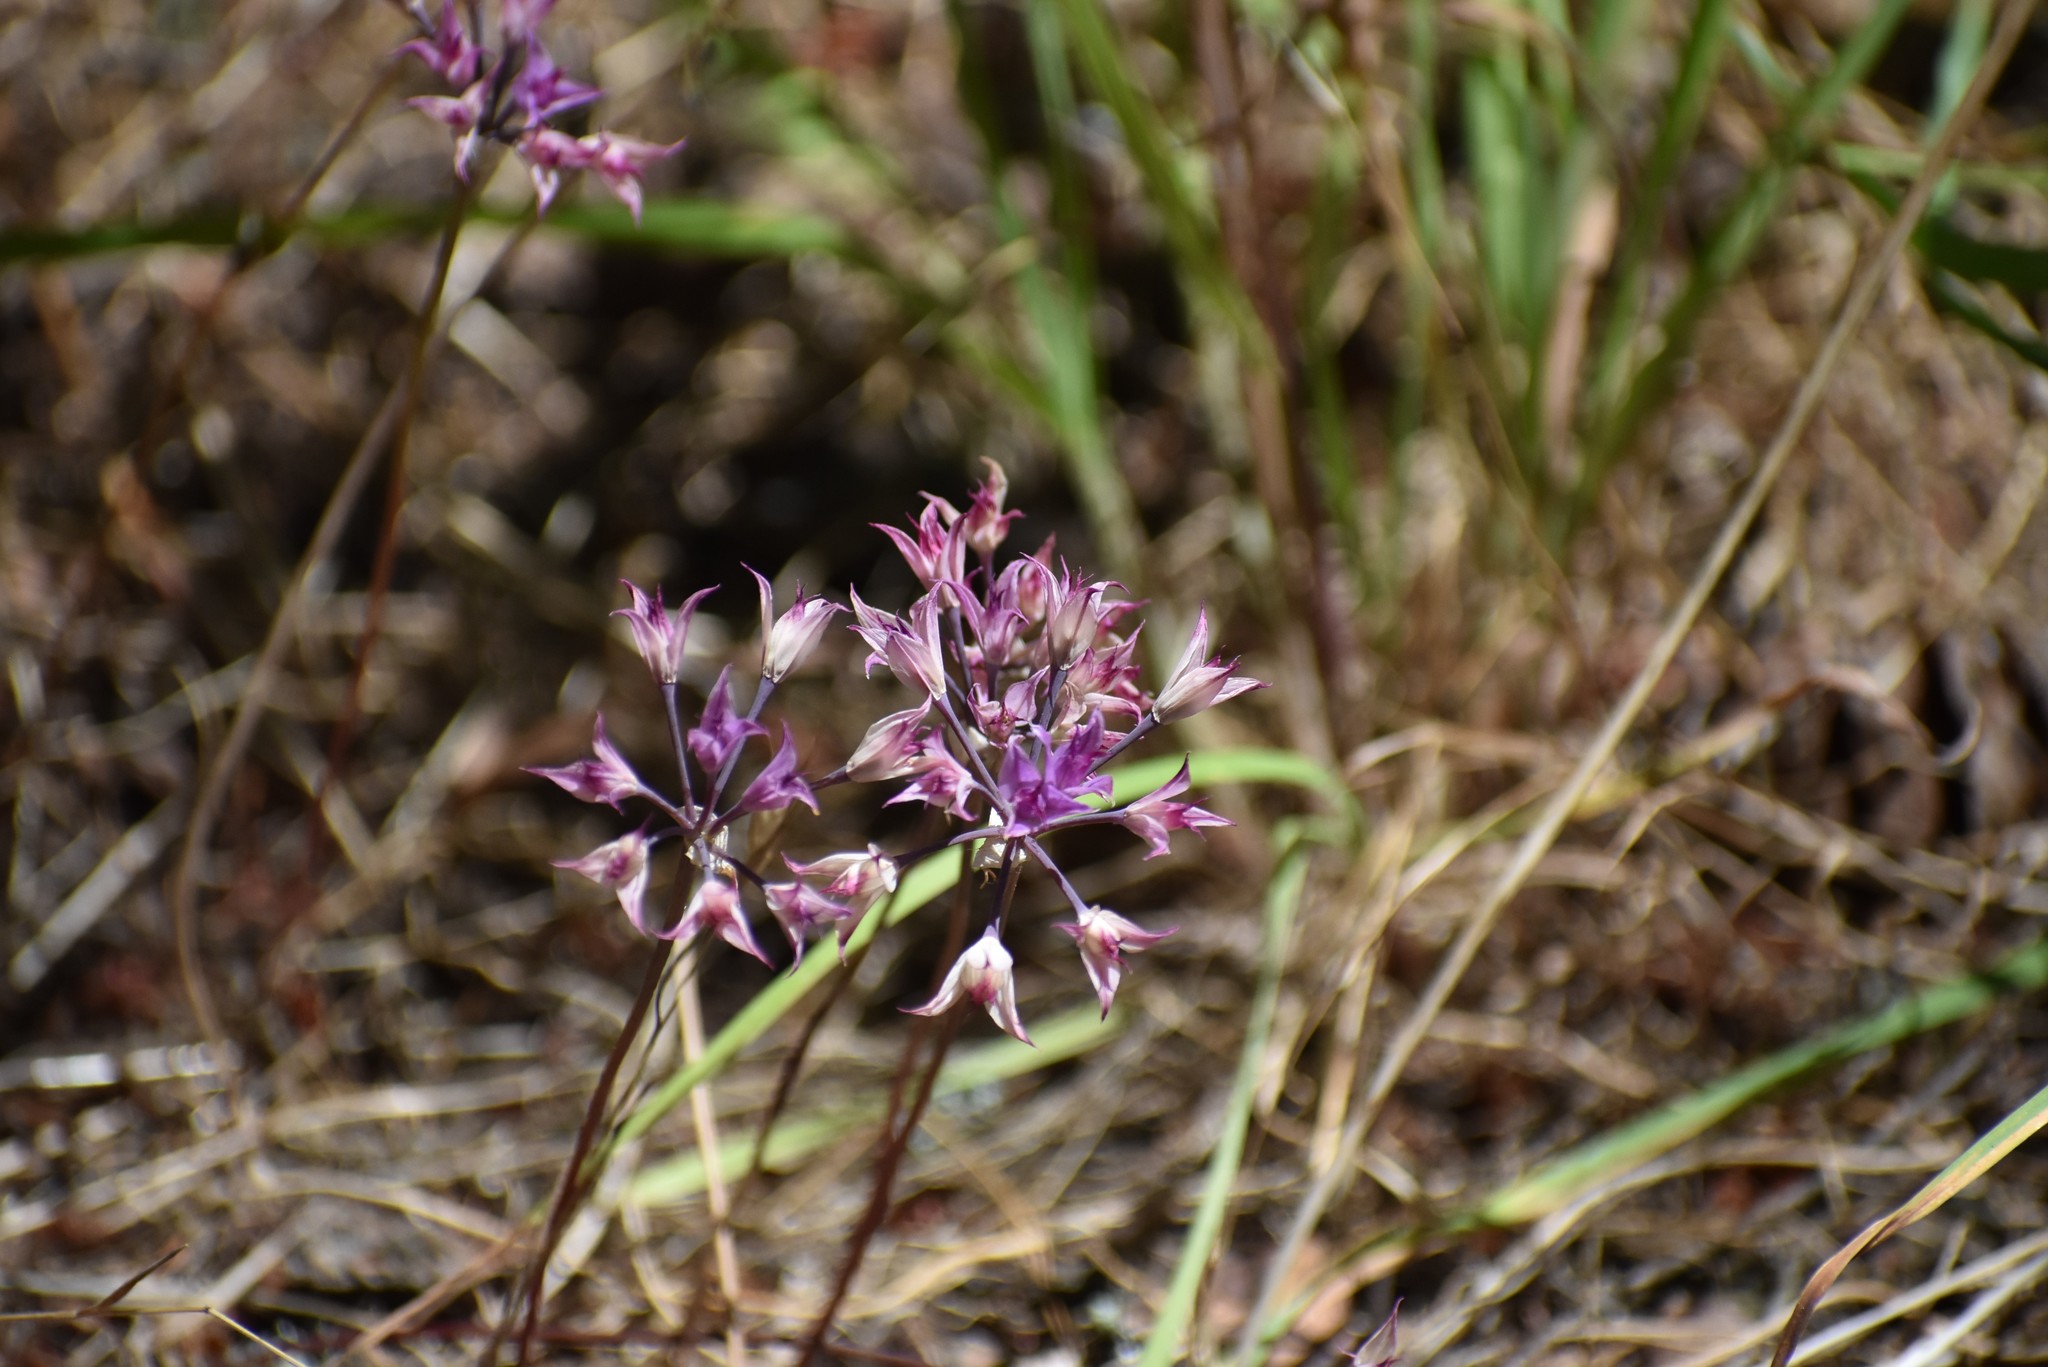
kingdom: Plantae
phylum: Tracheophyta
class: Liliopsida
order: Asparagales
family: Amaryllidaceae
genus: Allium
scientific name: Allium acuminatum
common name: Hooker's onion
